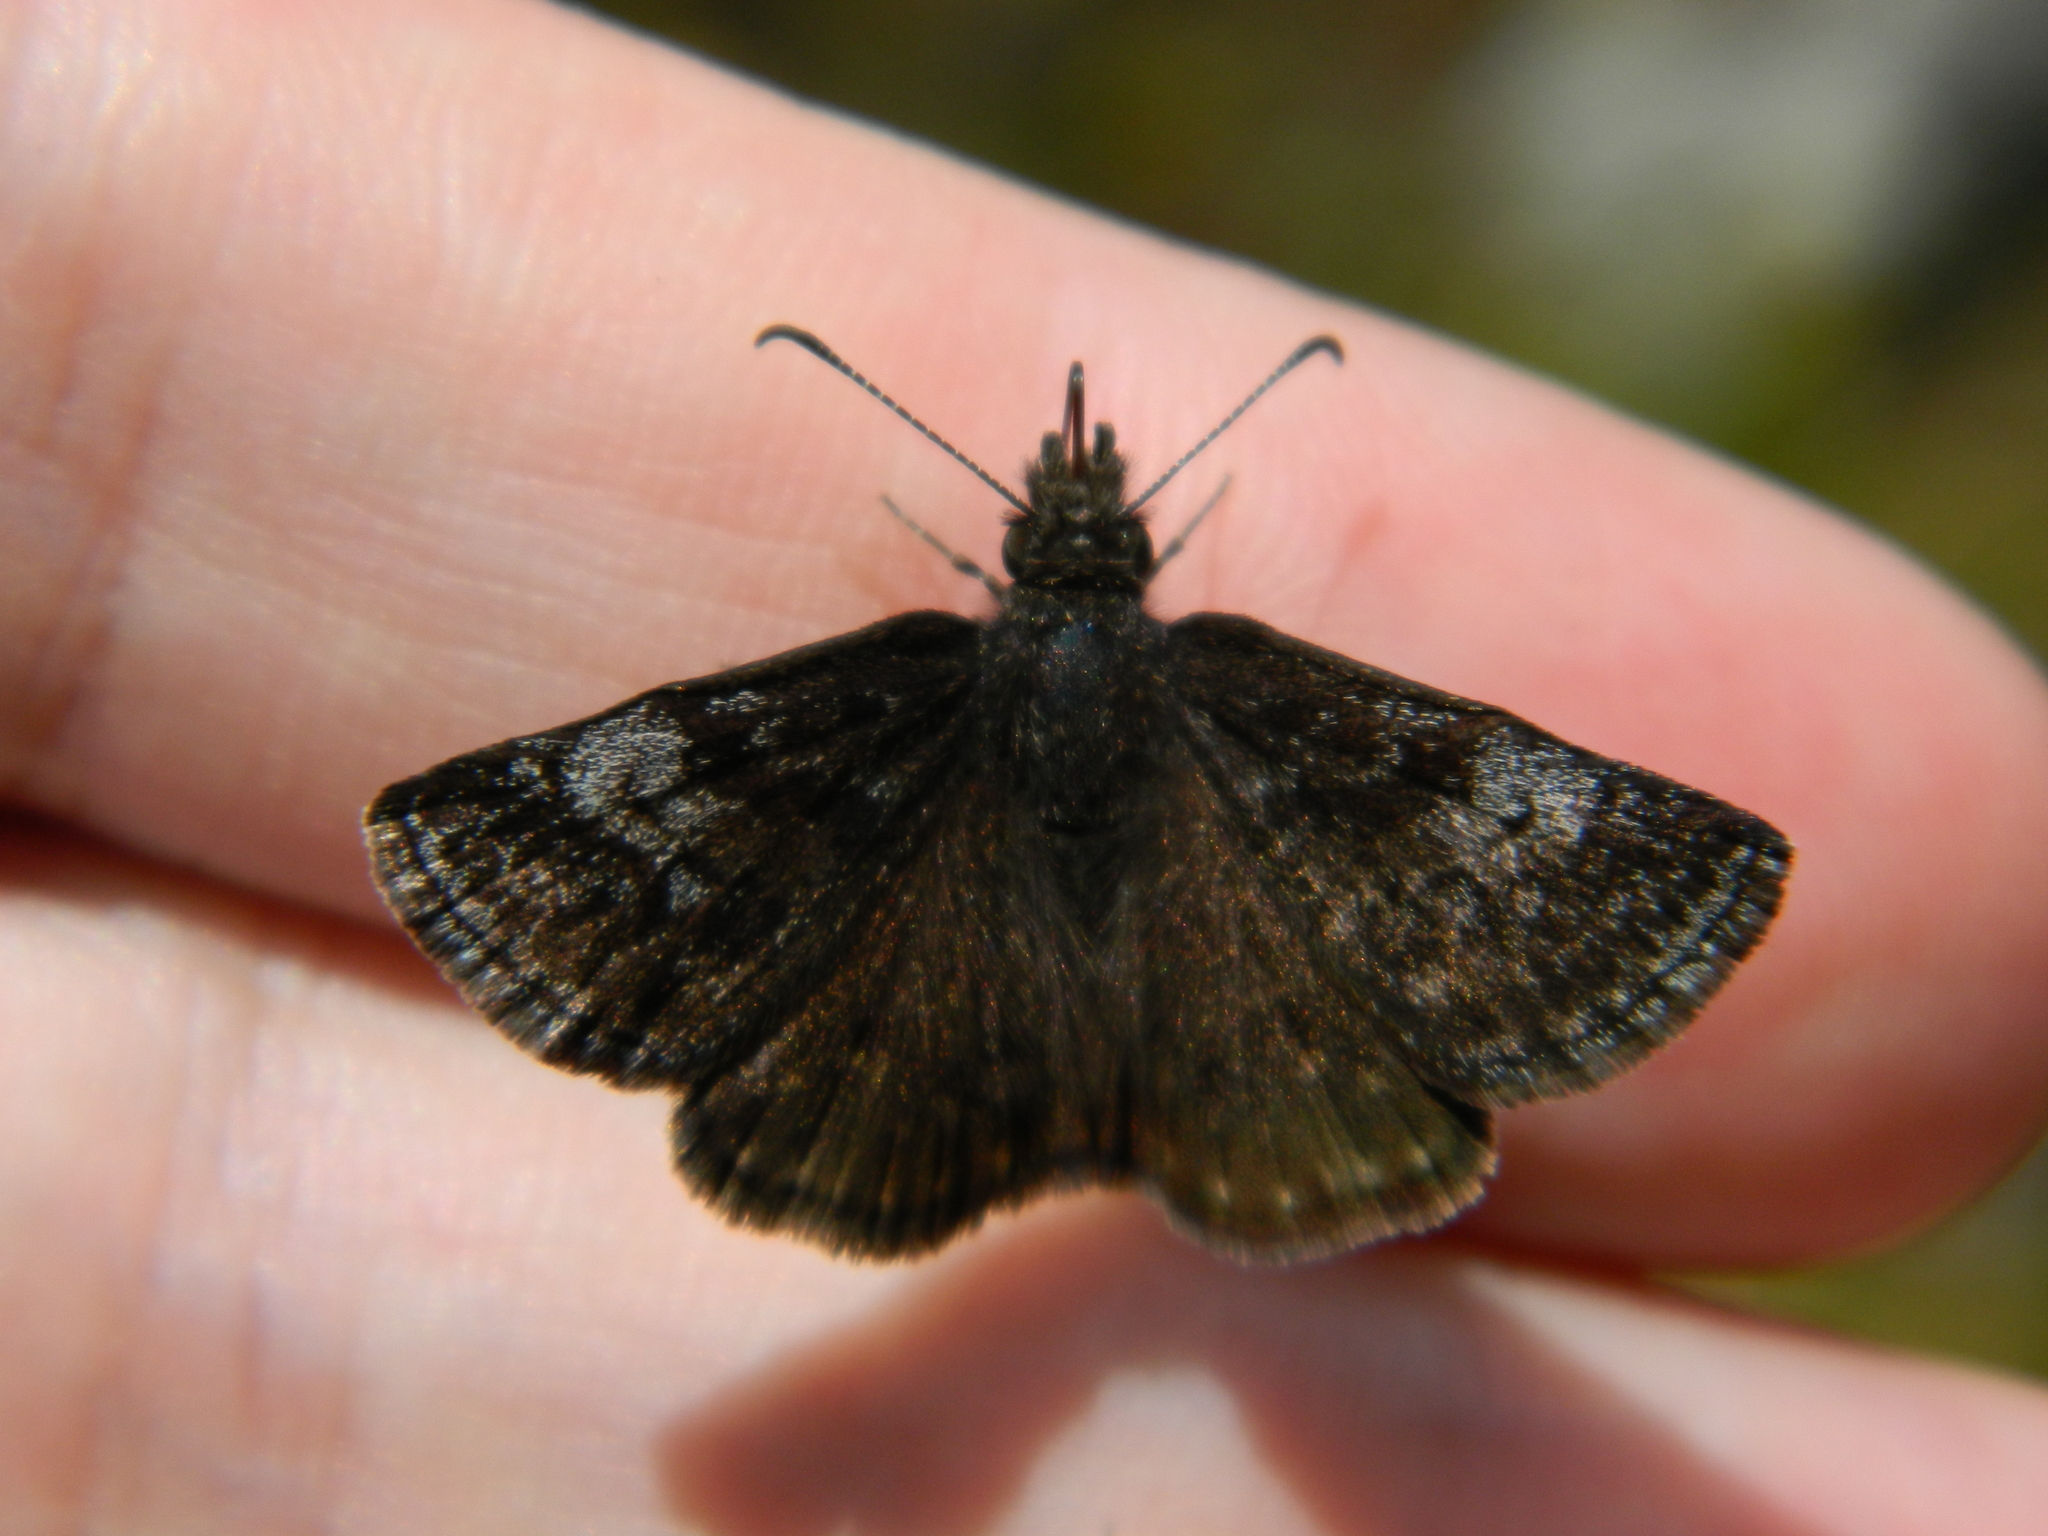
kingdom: Animalia
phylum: Arthropoda
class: Insecta
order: Lepidoptera
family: Hesperiidae
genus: Erynnis
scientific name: Erynnis icelus
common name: Dreamy duskywing
